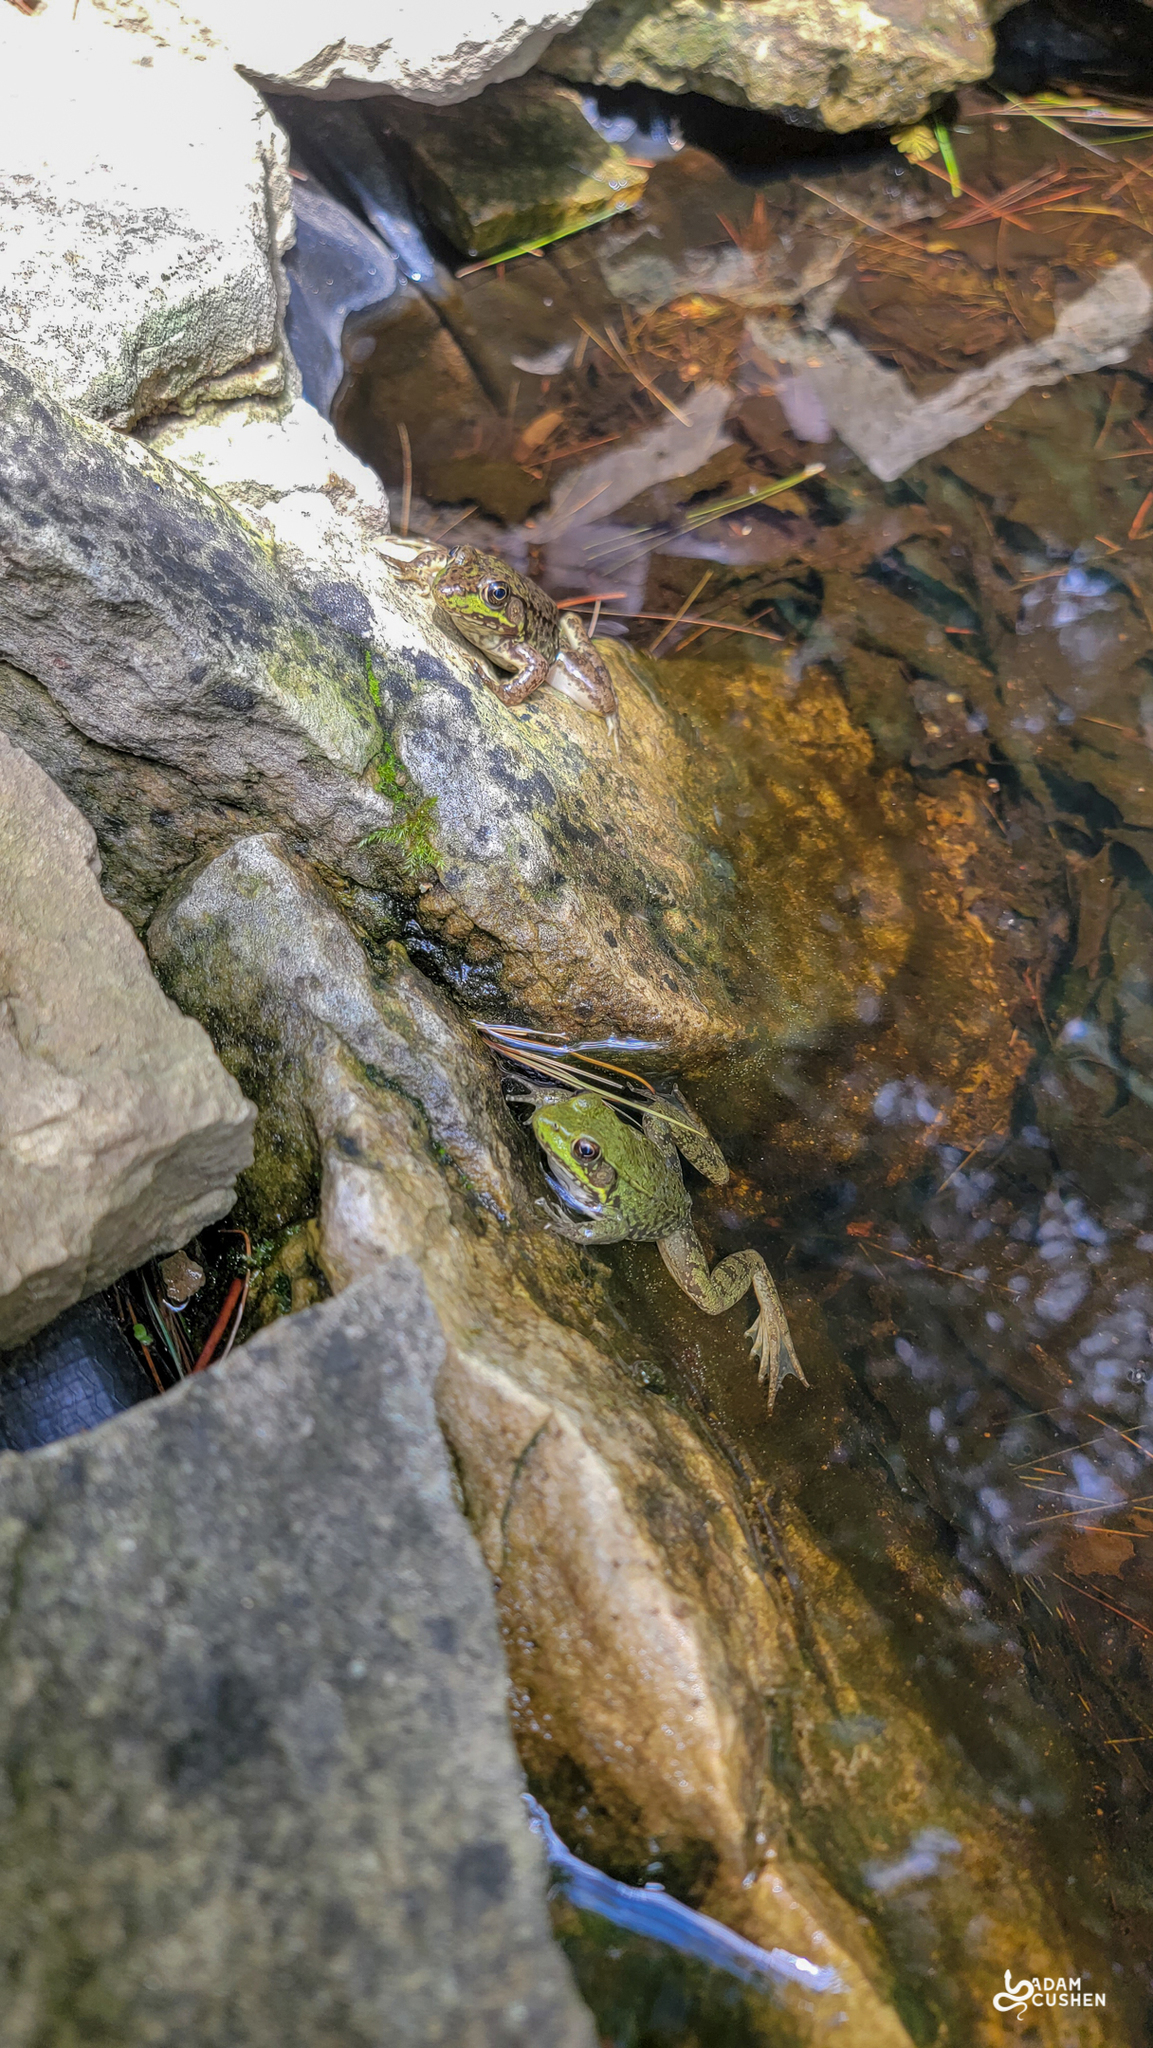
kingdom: Animalia
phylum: Chordata
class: Amphibia
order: Anura
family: Ranidae
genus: Lithobates
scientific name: Lithobates clamitans
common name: Green frog
